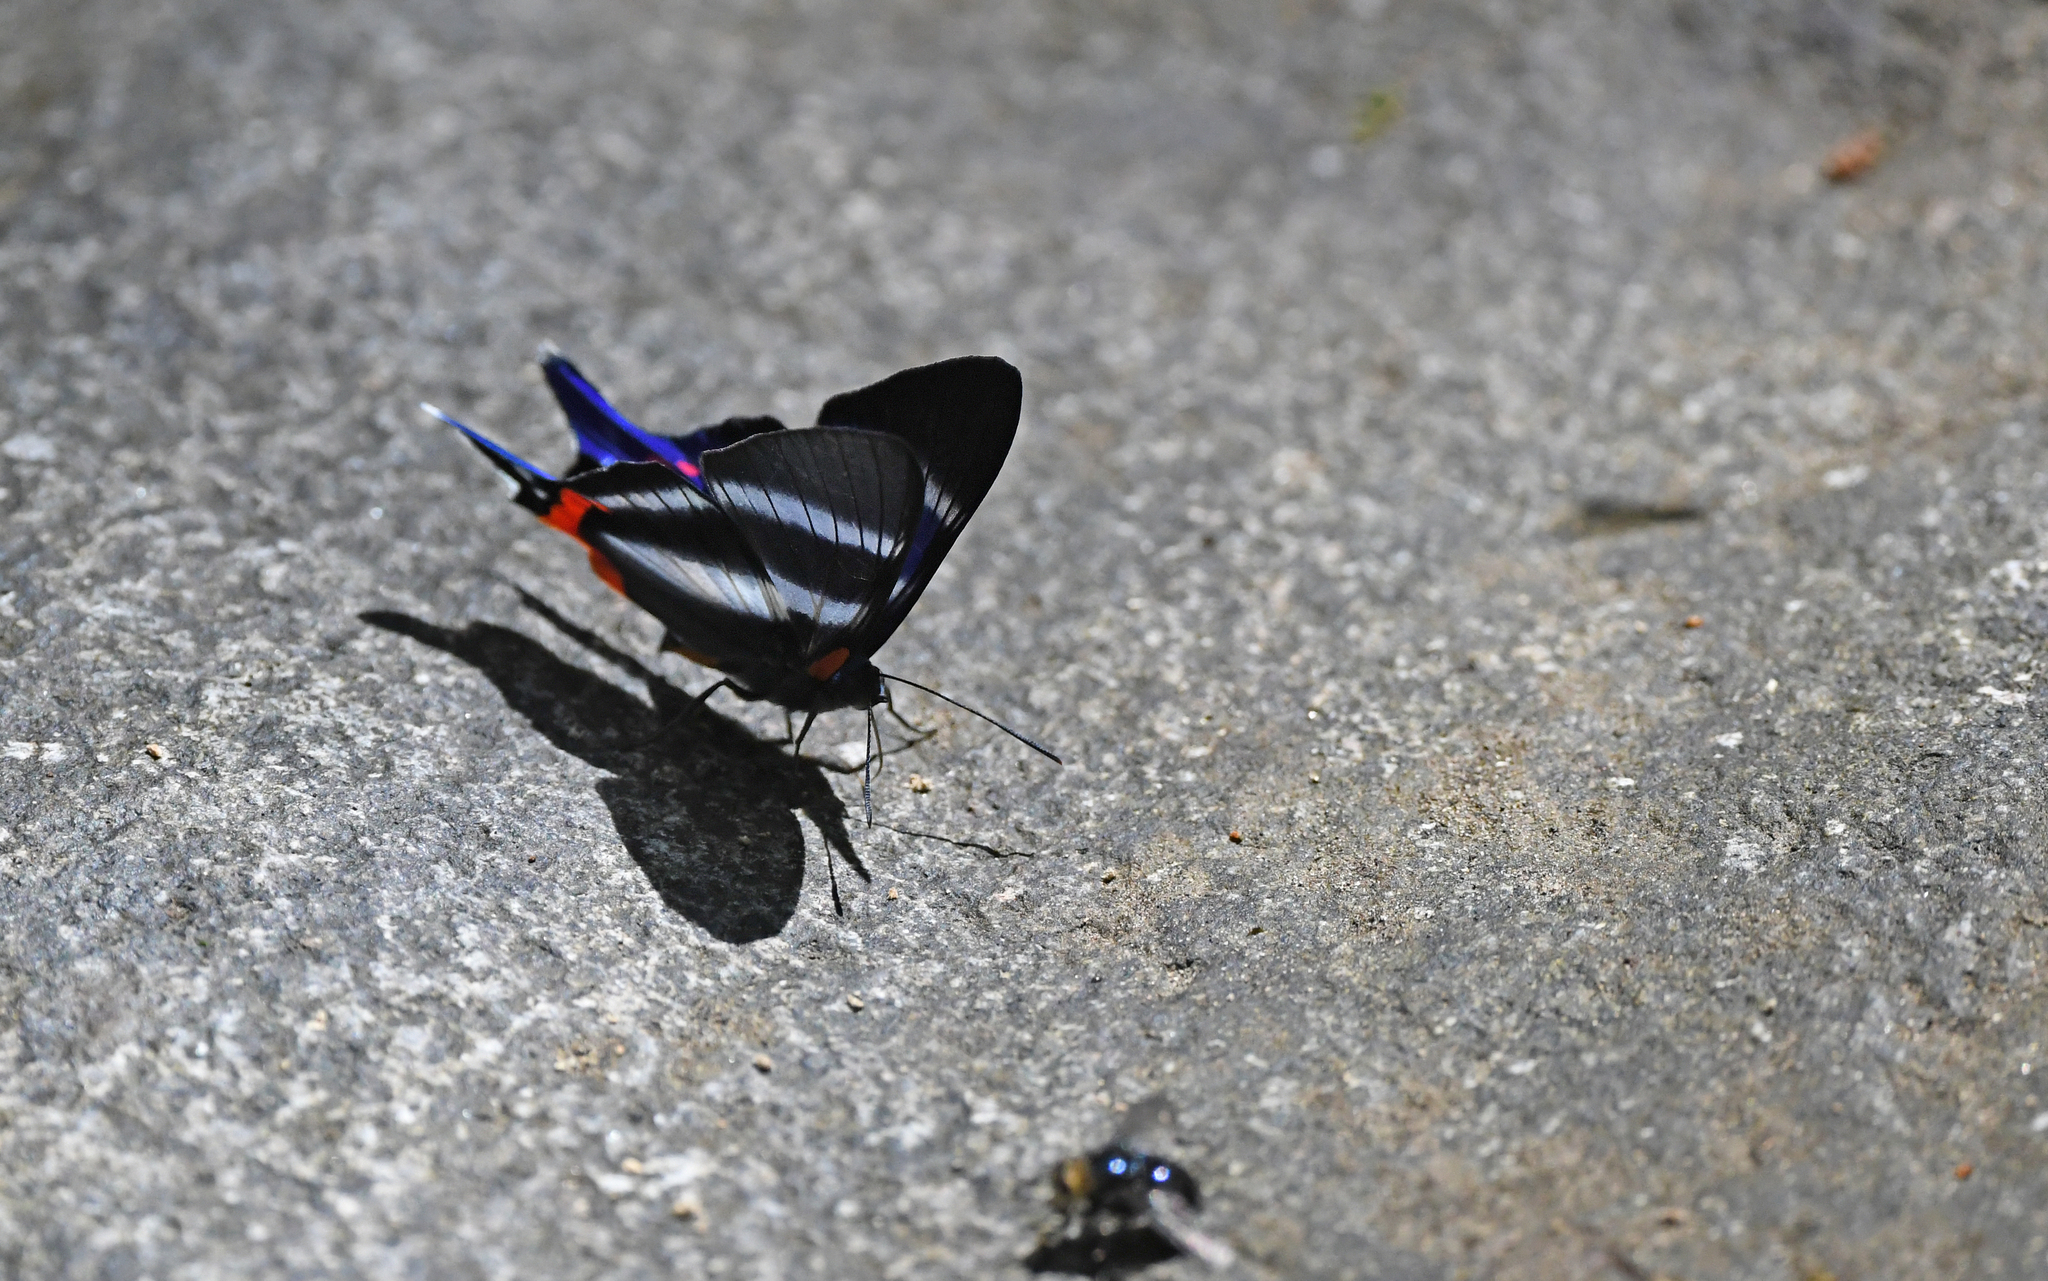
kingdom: Animalia
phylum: Arthropoda
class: Insecta
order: Lepidoptera
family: Riodinidae
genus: Rhetus
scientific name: Rhetus dysonii
